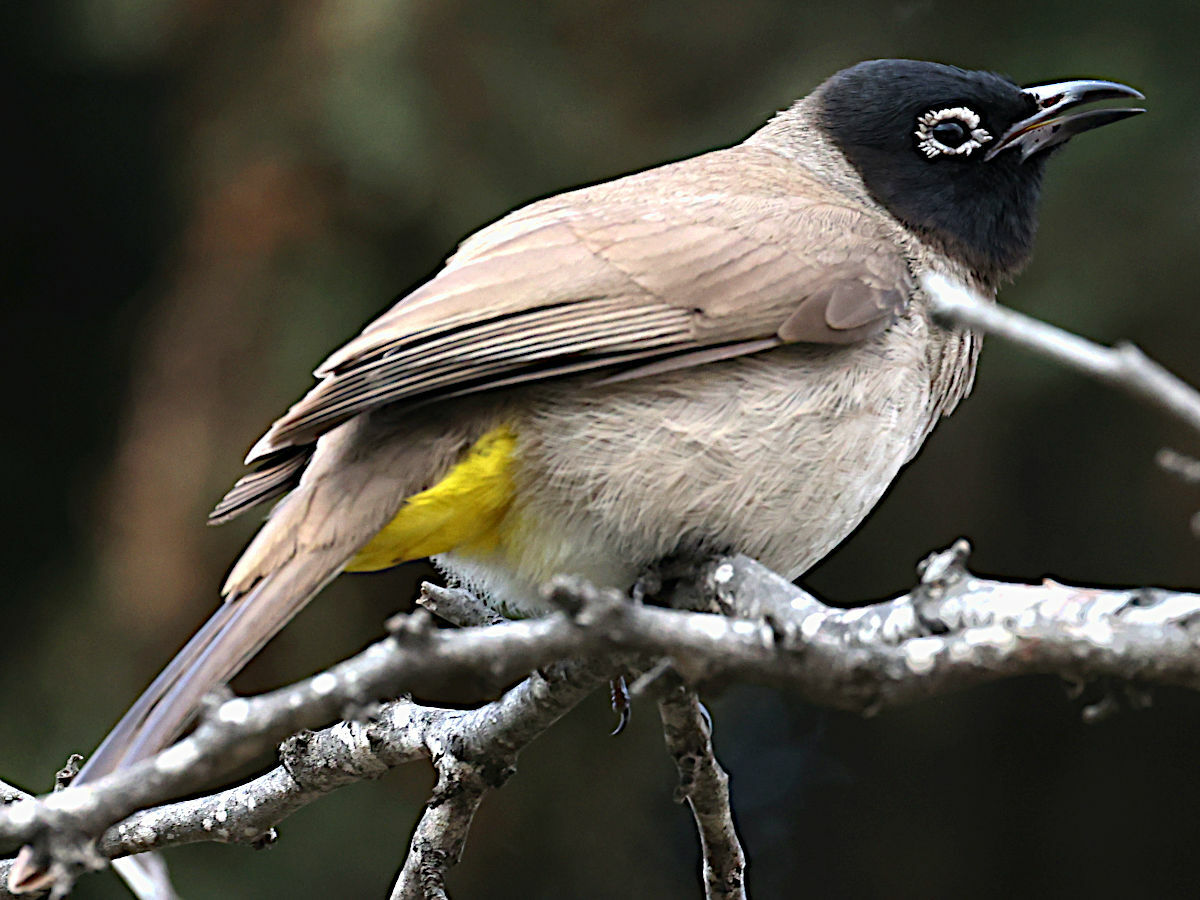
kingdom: Animalia
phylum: Chordata
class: Aves
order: Passeriformes
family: Pycnonotidae
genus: Pycnonotus
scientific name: Pycnonotus xanthopygos
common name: White-spectacled bulbul
